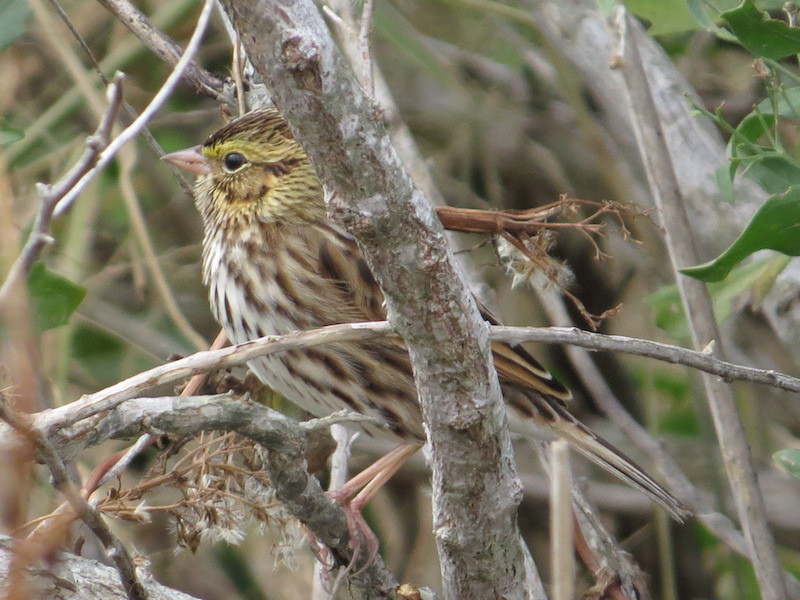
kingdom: Animalia
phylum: Chordata
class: Aves
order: Passeriformes
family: Passerellidae
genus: Passerculus
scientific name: Passerculus sandwichensis
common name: Savannah sparrow
